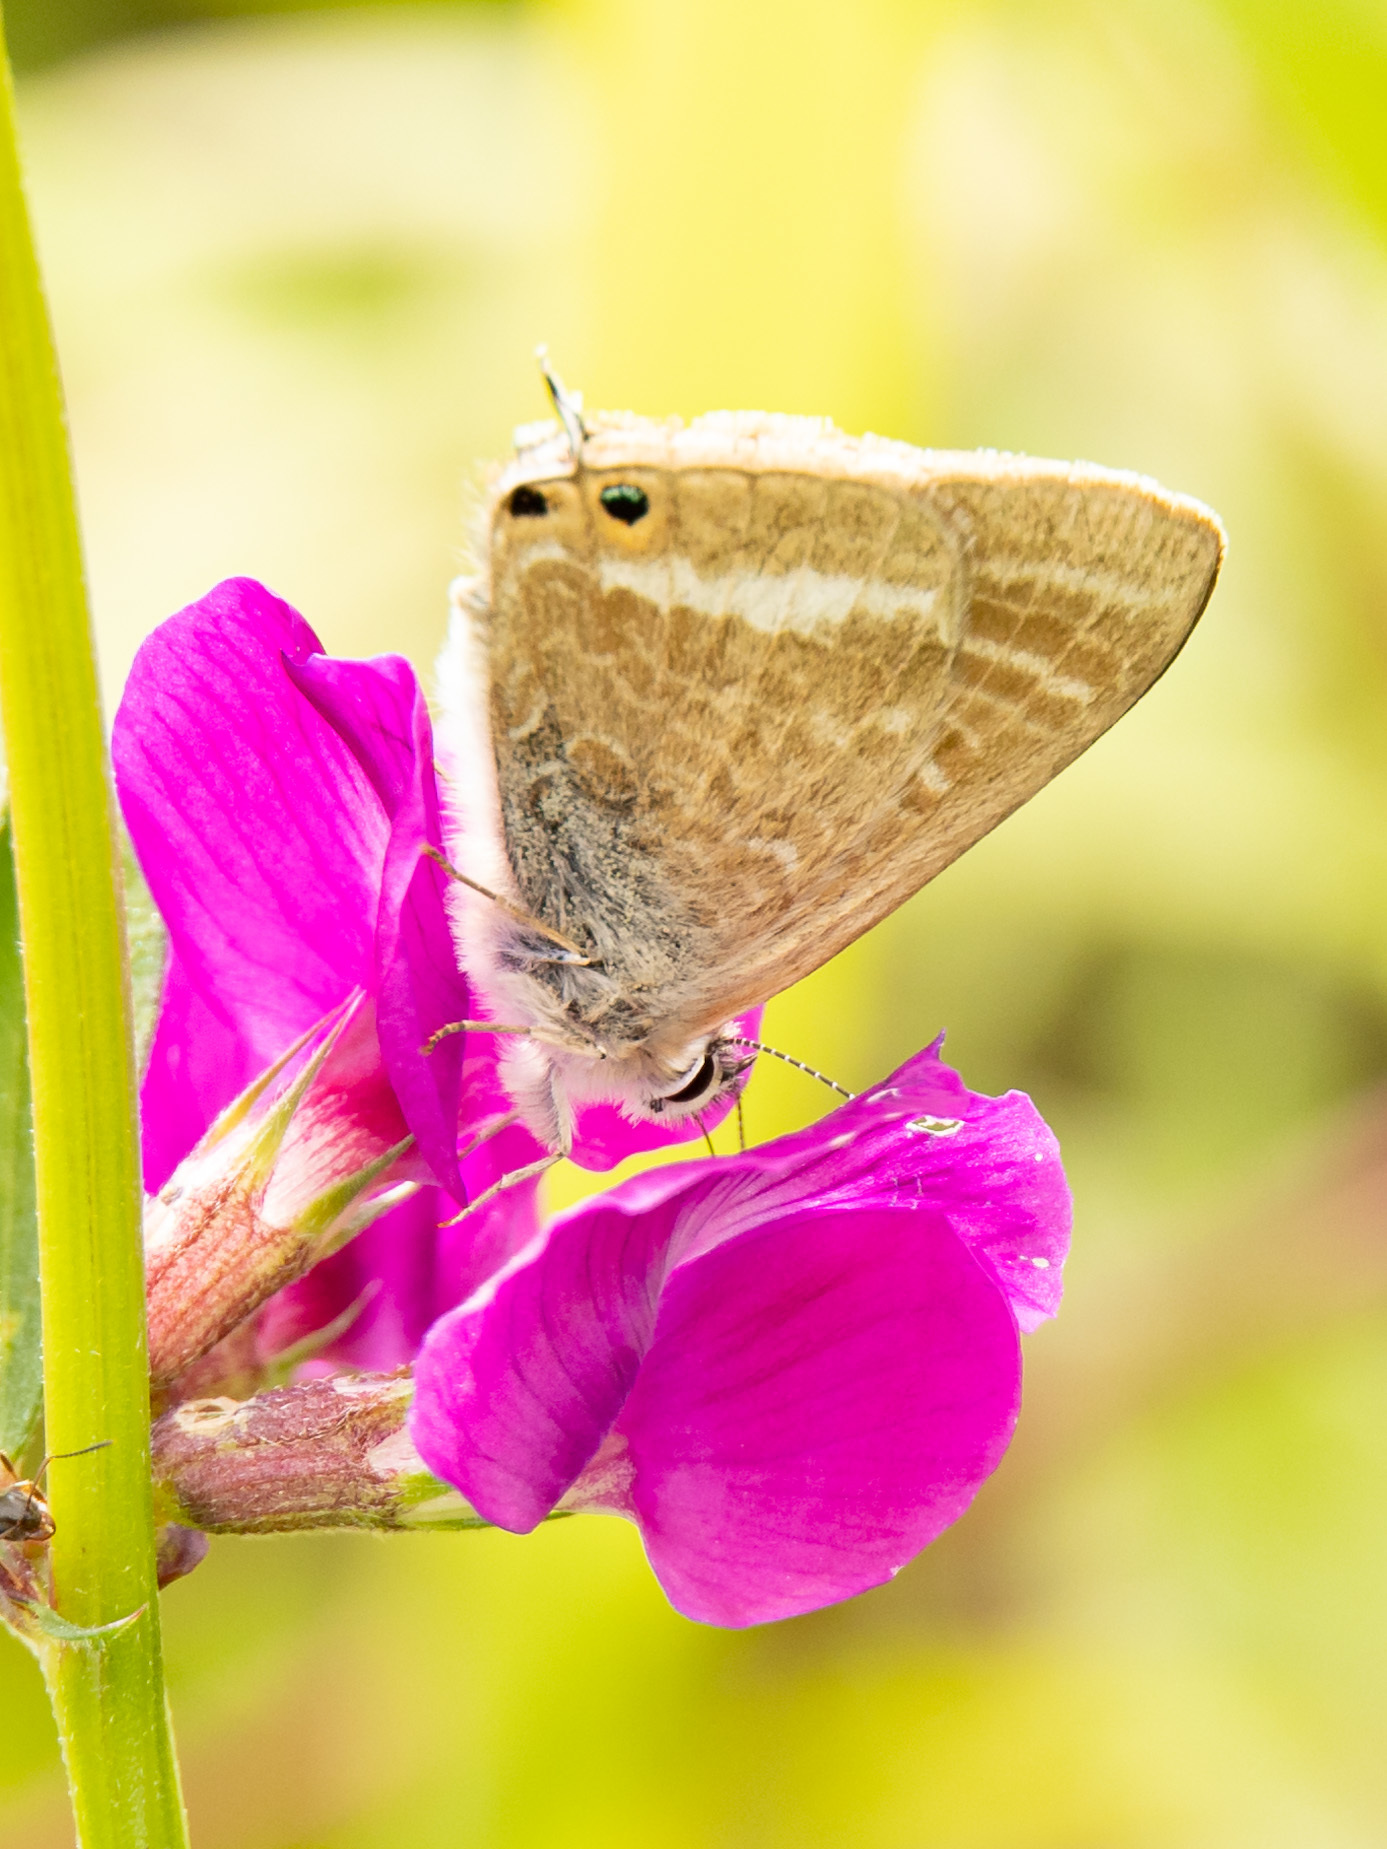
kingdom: Animalia
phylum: Arthropoda
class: Insecta
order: Lepidoptera
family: Lycaenidae
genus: Lampides
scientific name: Lampides boeticus
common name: Long-tailed blue
